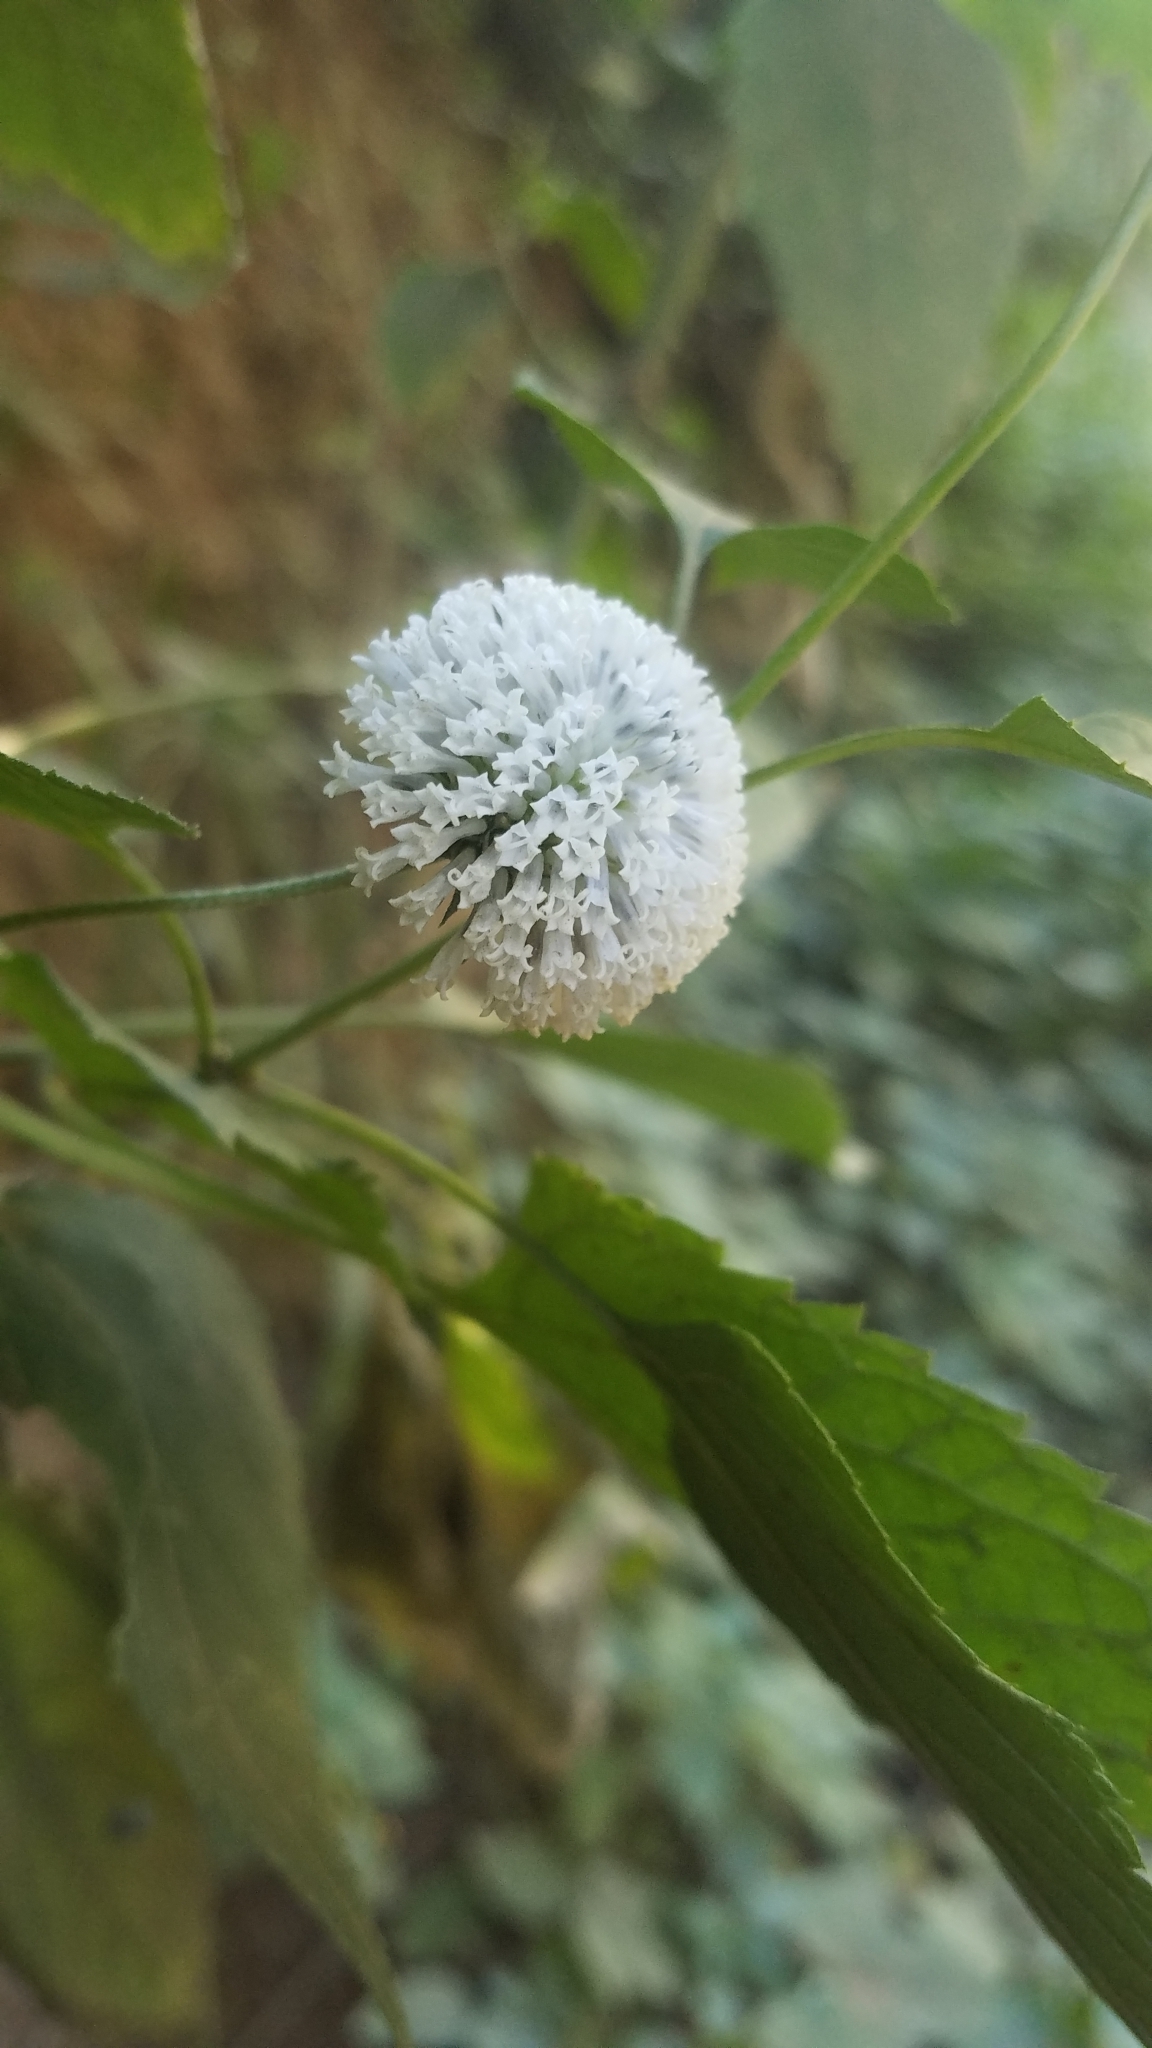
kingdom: Plantae
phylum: Tracheophyta
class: Magnoliopsida
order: Asterales
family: Asteraceae
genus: Melanthera
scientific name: Melanthera nivea
